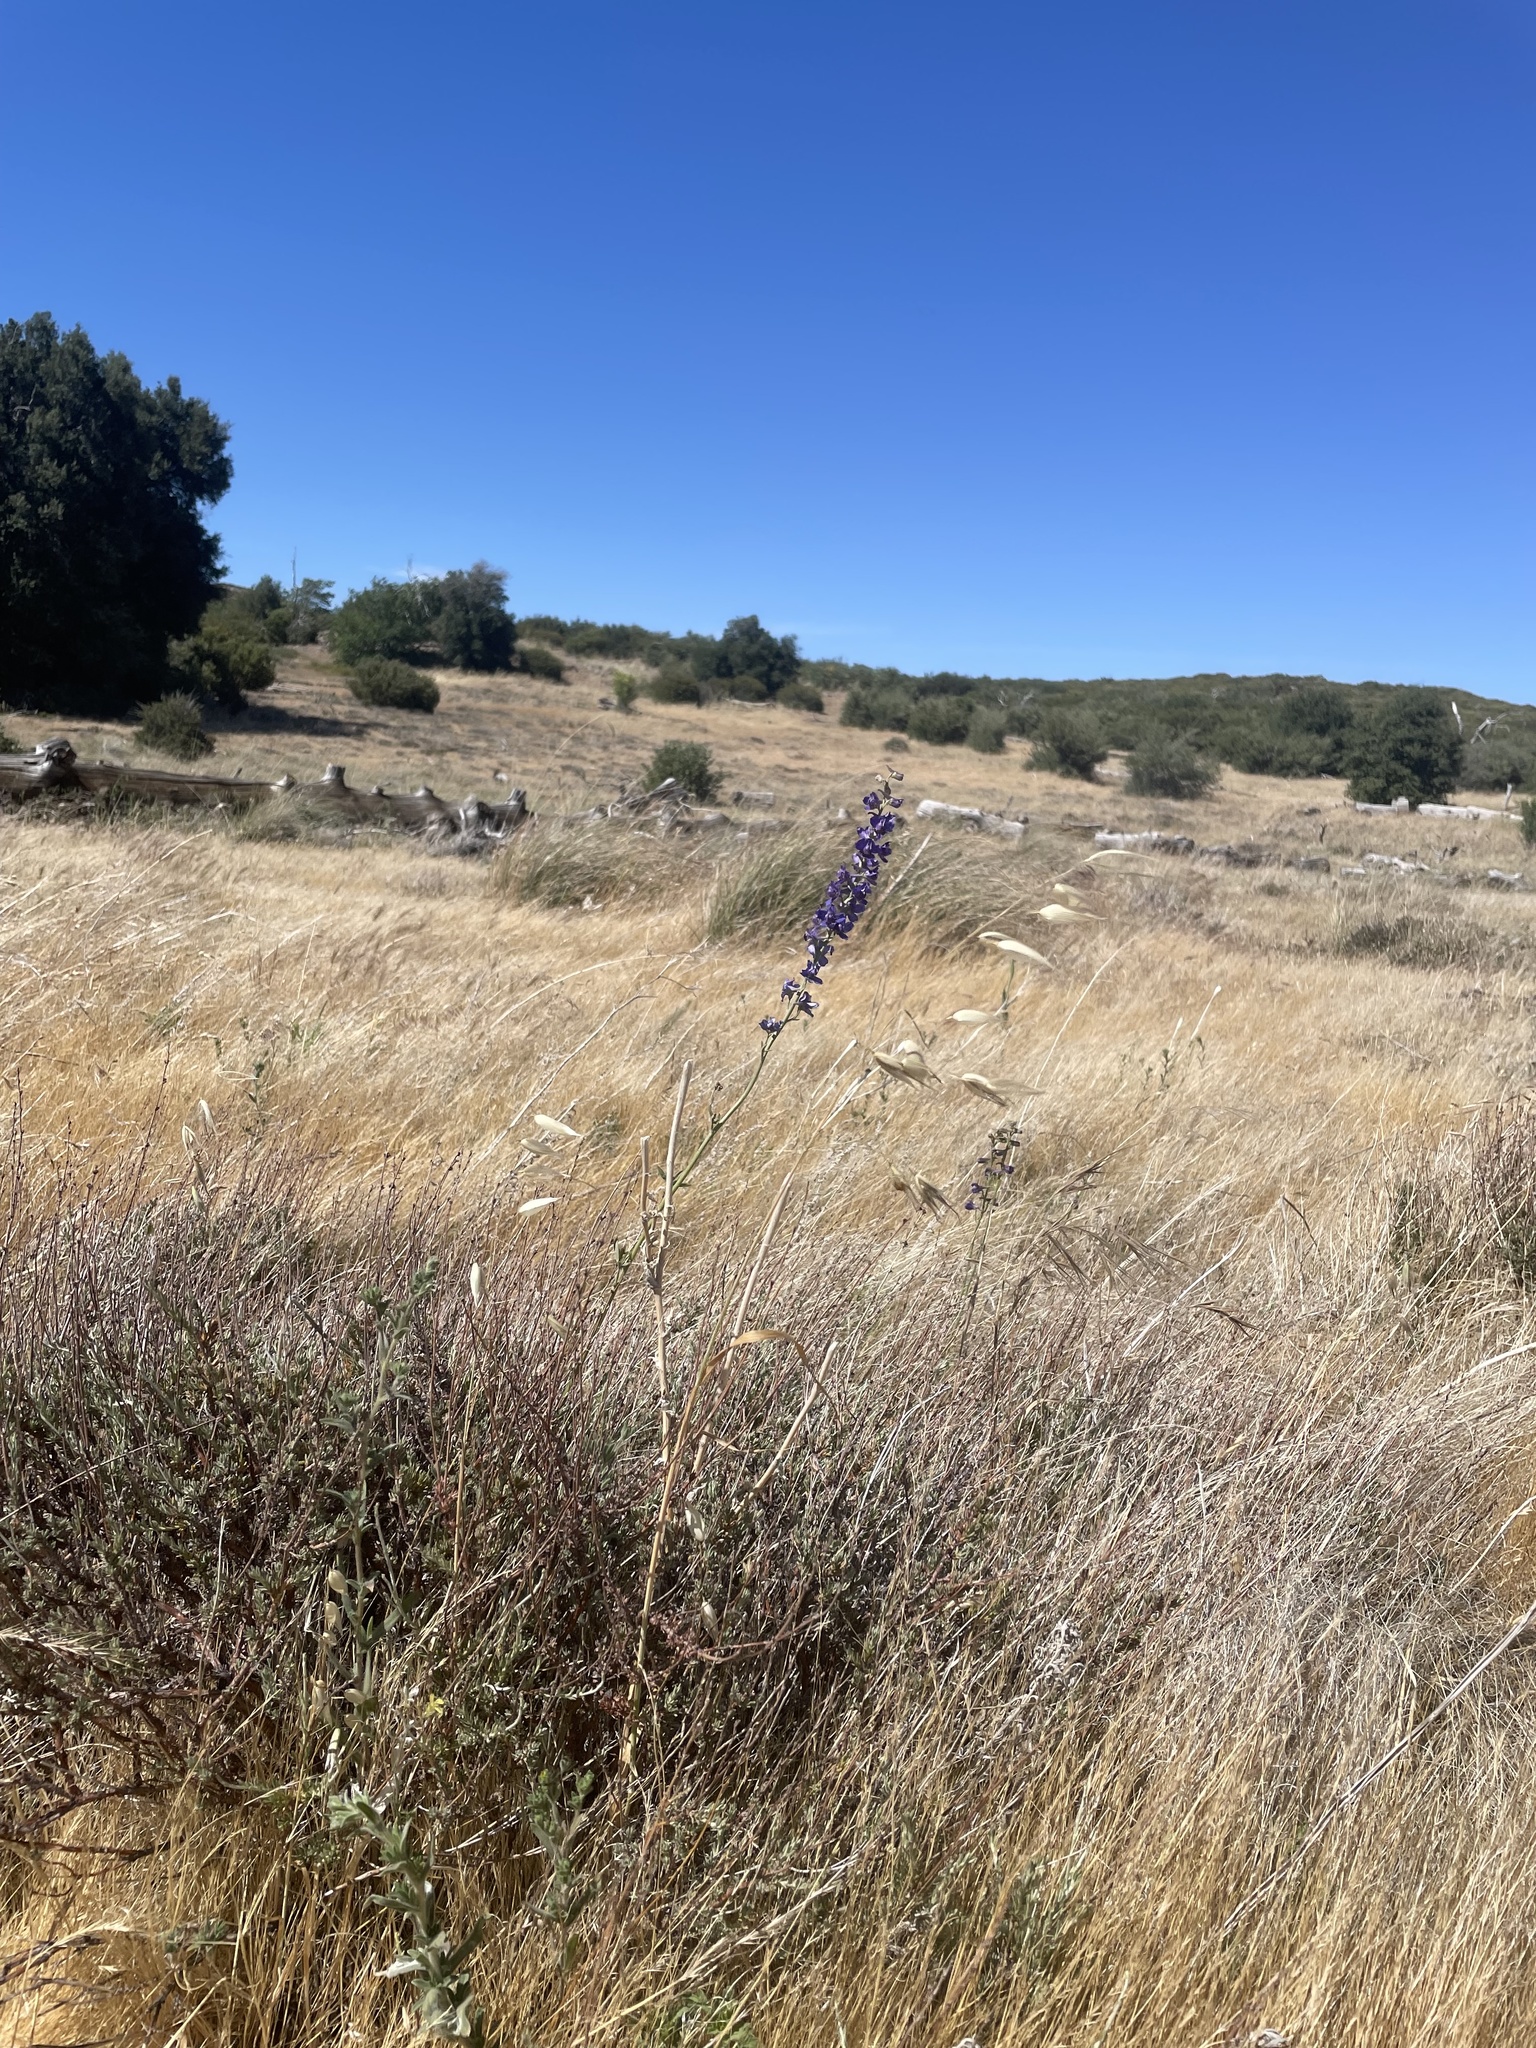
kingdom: Plantae
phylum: Tracheophyta
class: Magnoliopsida
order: Ranunculales
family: Ranunculaceae
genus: Delphinium
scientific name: Delphinium hesperium
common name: Western larkspur
